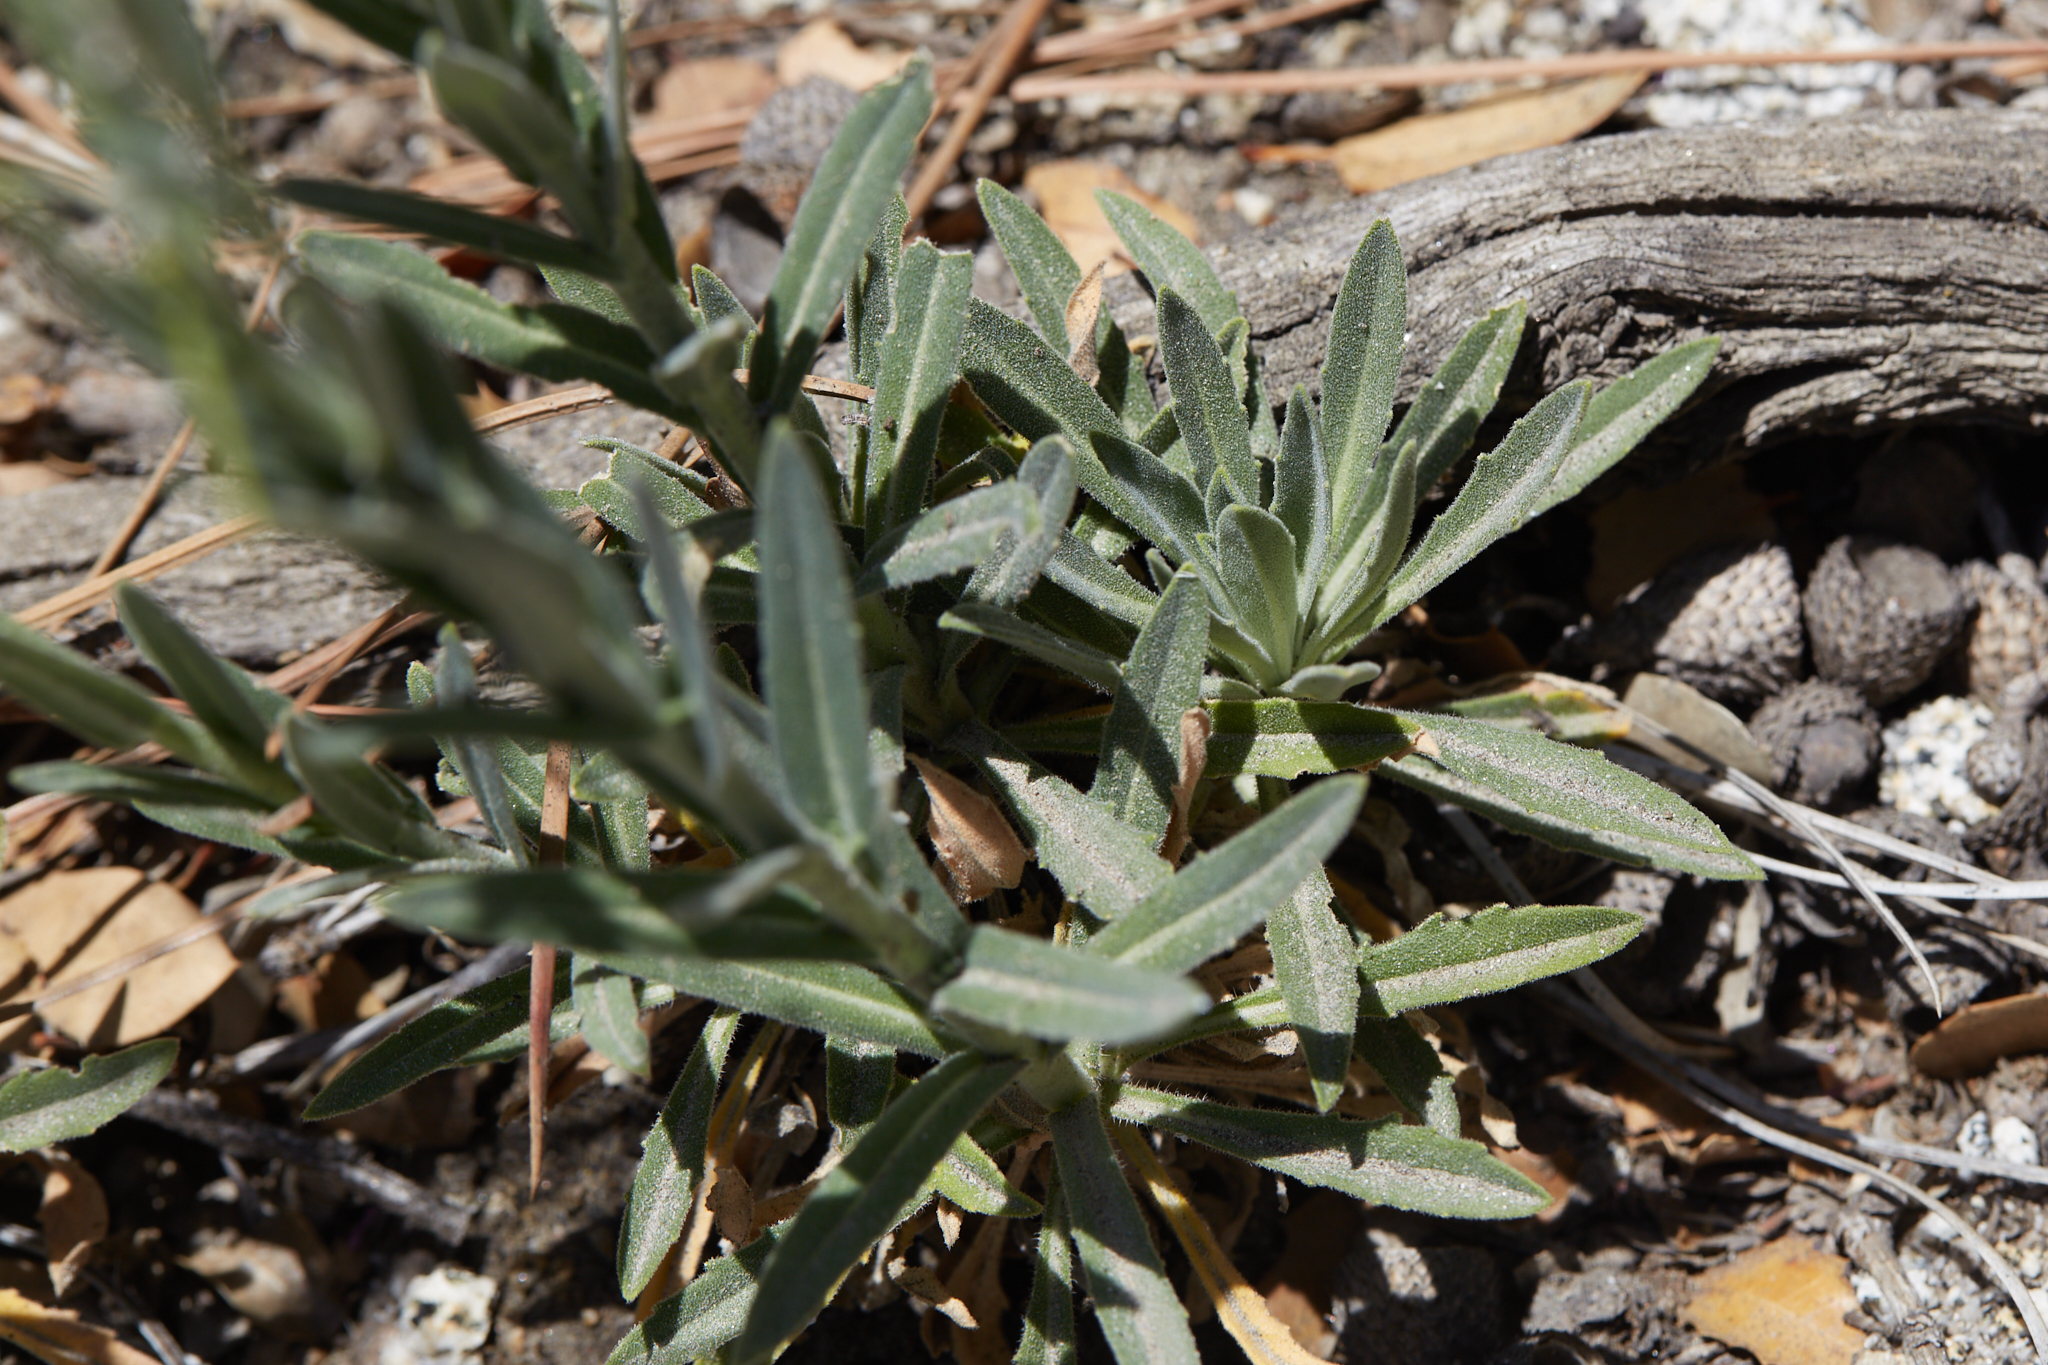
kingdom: Plantae
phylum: Tracheophyta
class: Magnoliopsida
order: Brassicales
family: Brassicaceae
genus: Boechera
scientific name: Boechera californica
